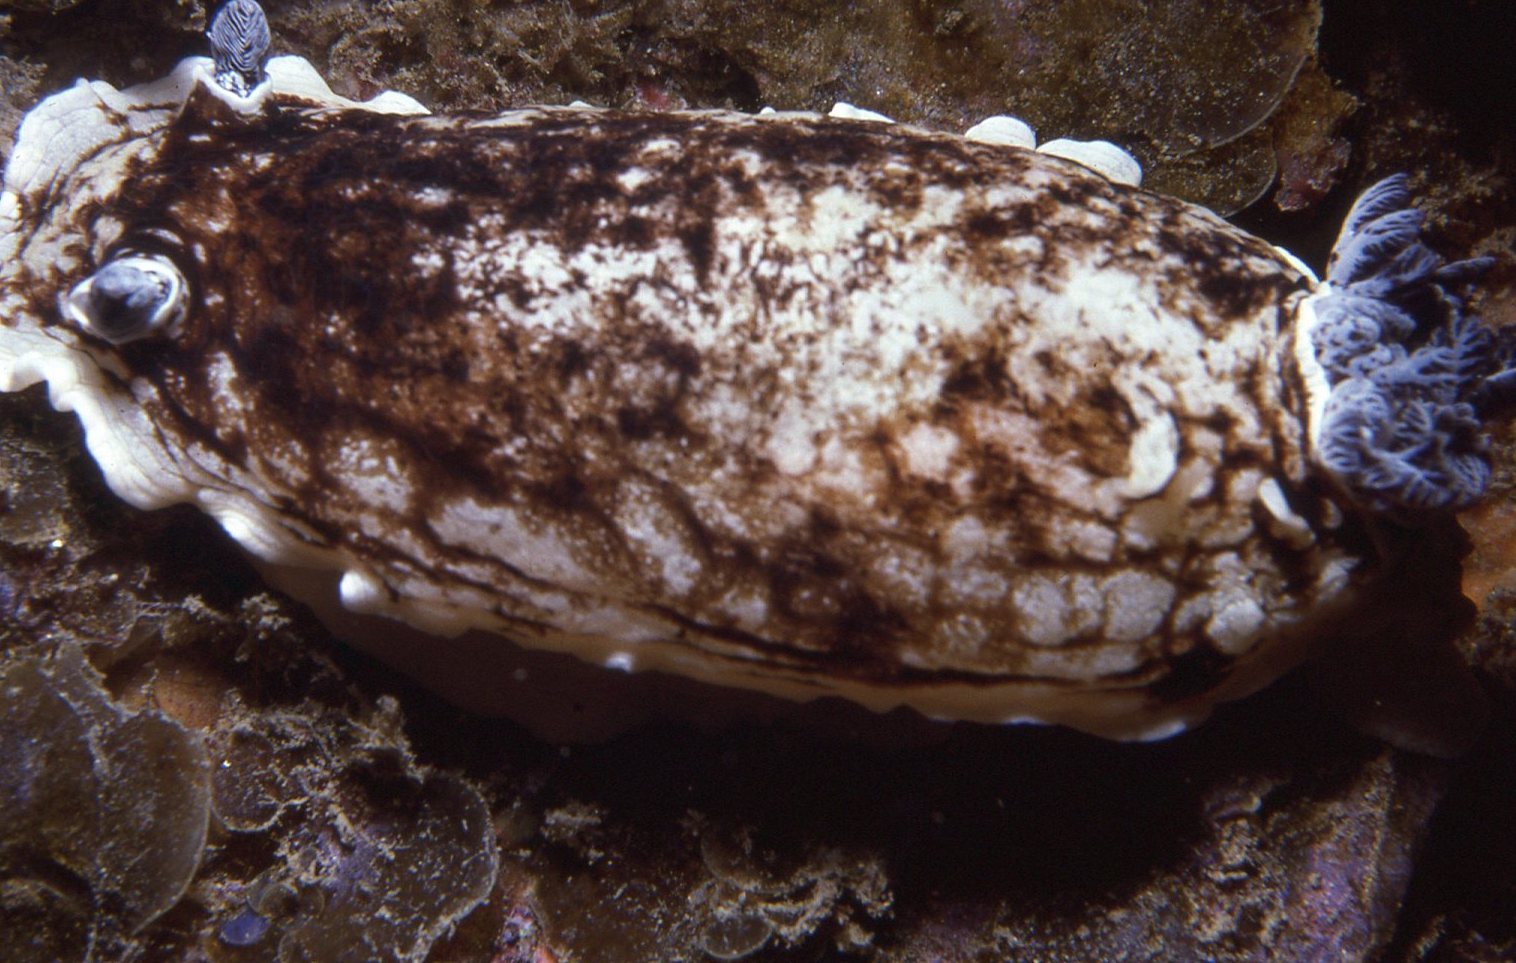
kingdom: Animalia
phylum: Mollusca
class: Gastropoda
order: Nudibranchia
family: Dorididae
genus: Aphelodoris
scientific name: Aphelodoris varia
